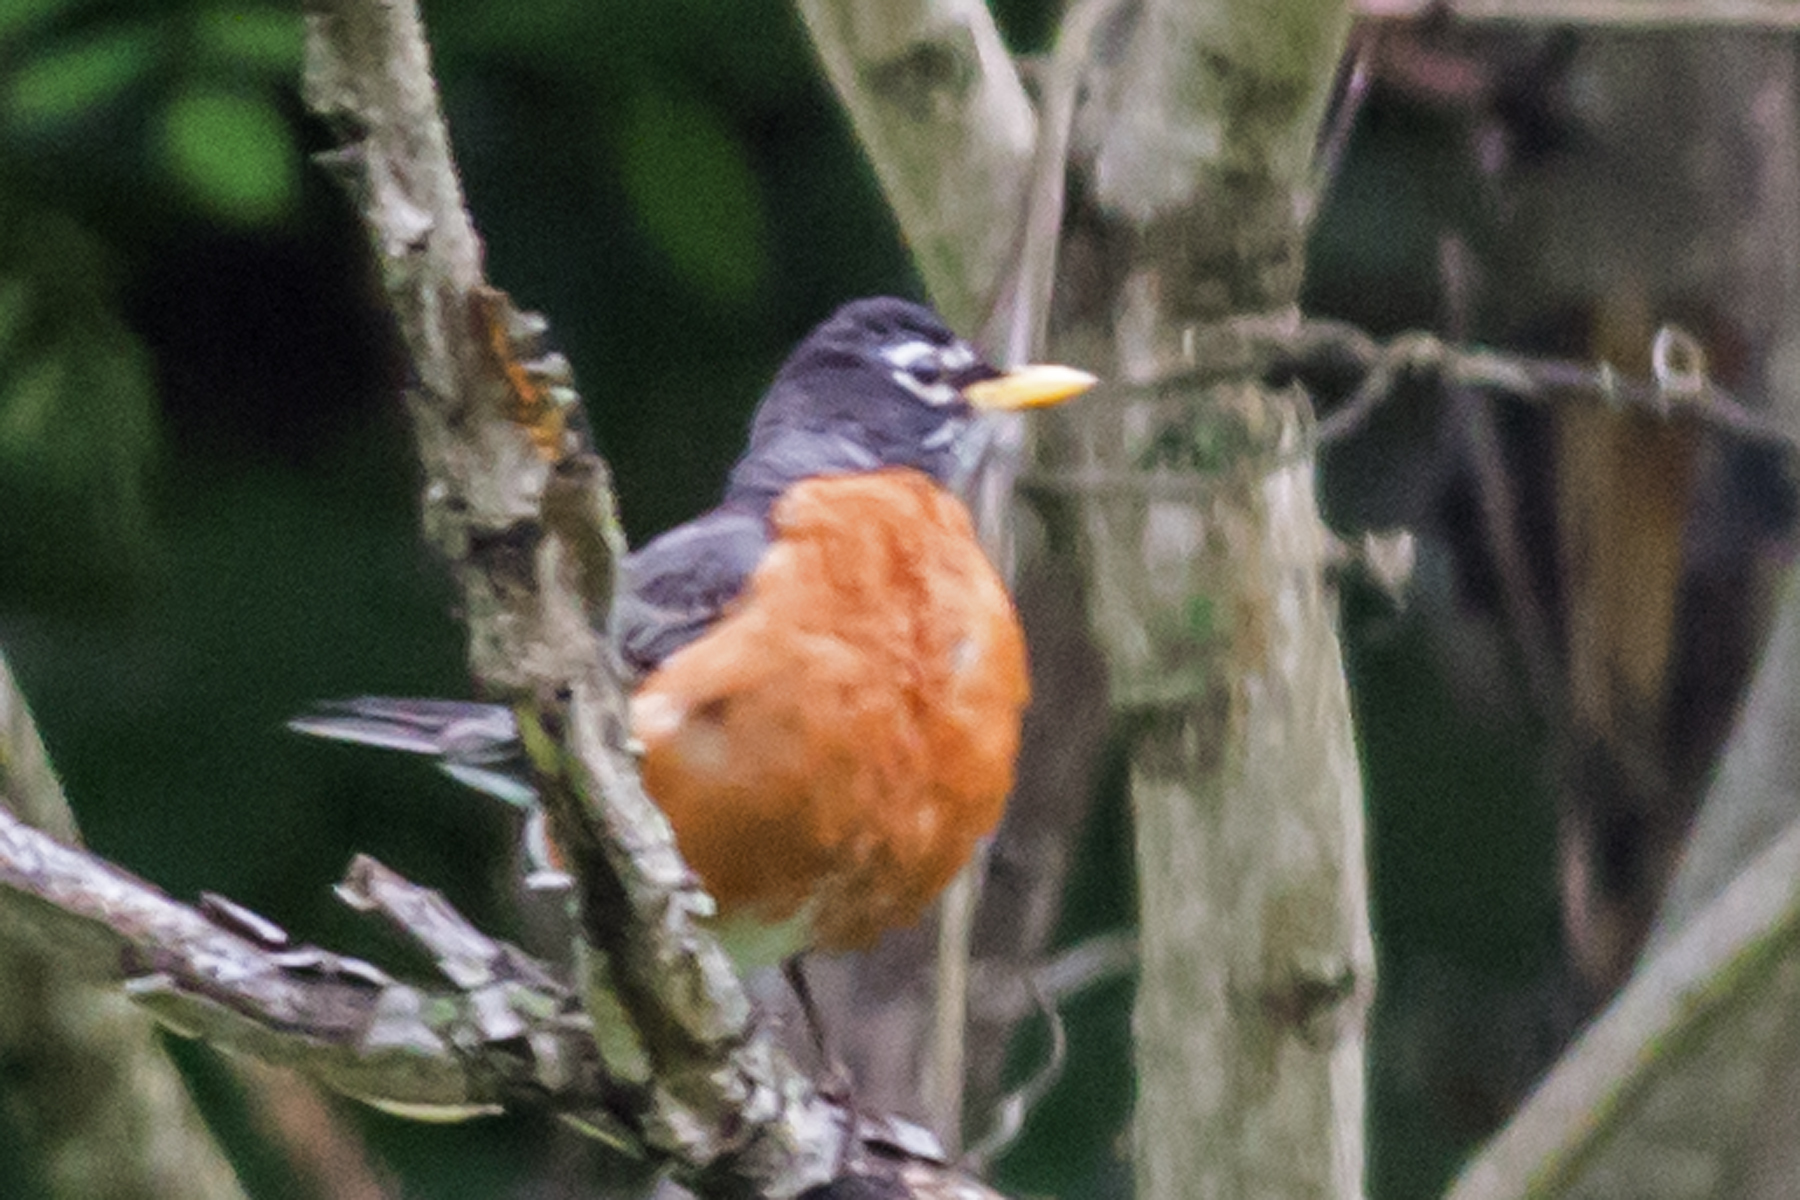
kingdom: Animalia
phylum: Chordata
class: Aves
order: Passeriformes
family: Turdidae
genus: Turdus
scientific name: Turdus migratorius
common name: American robin
